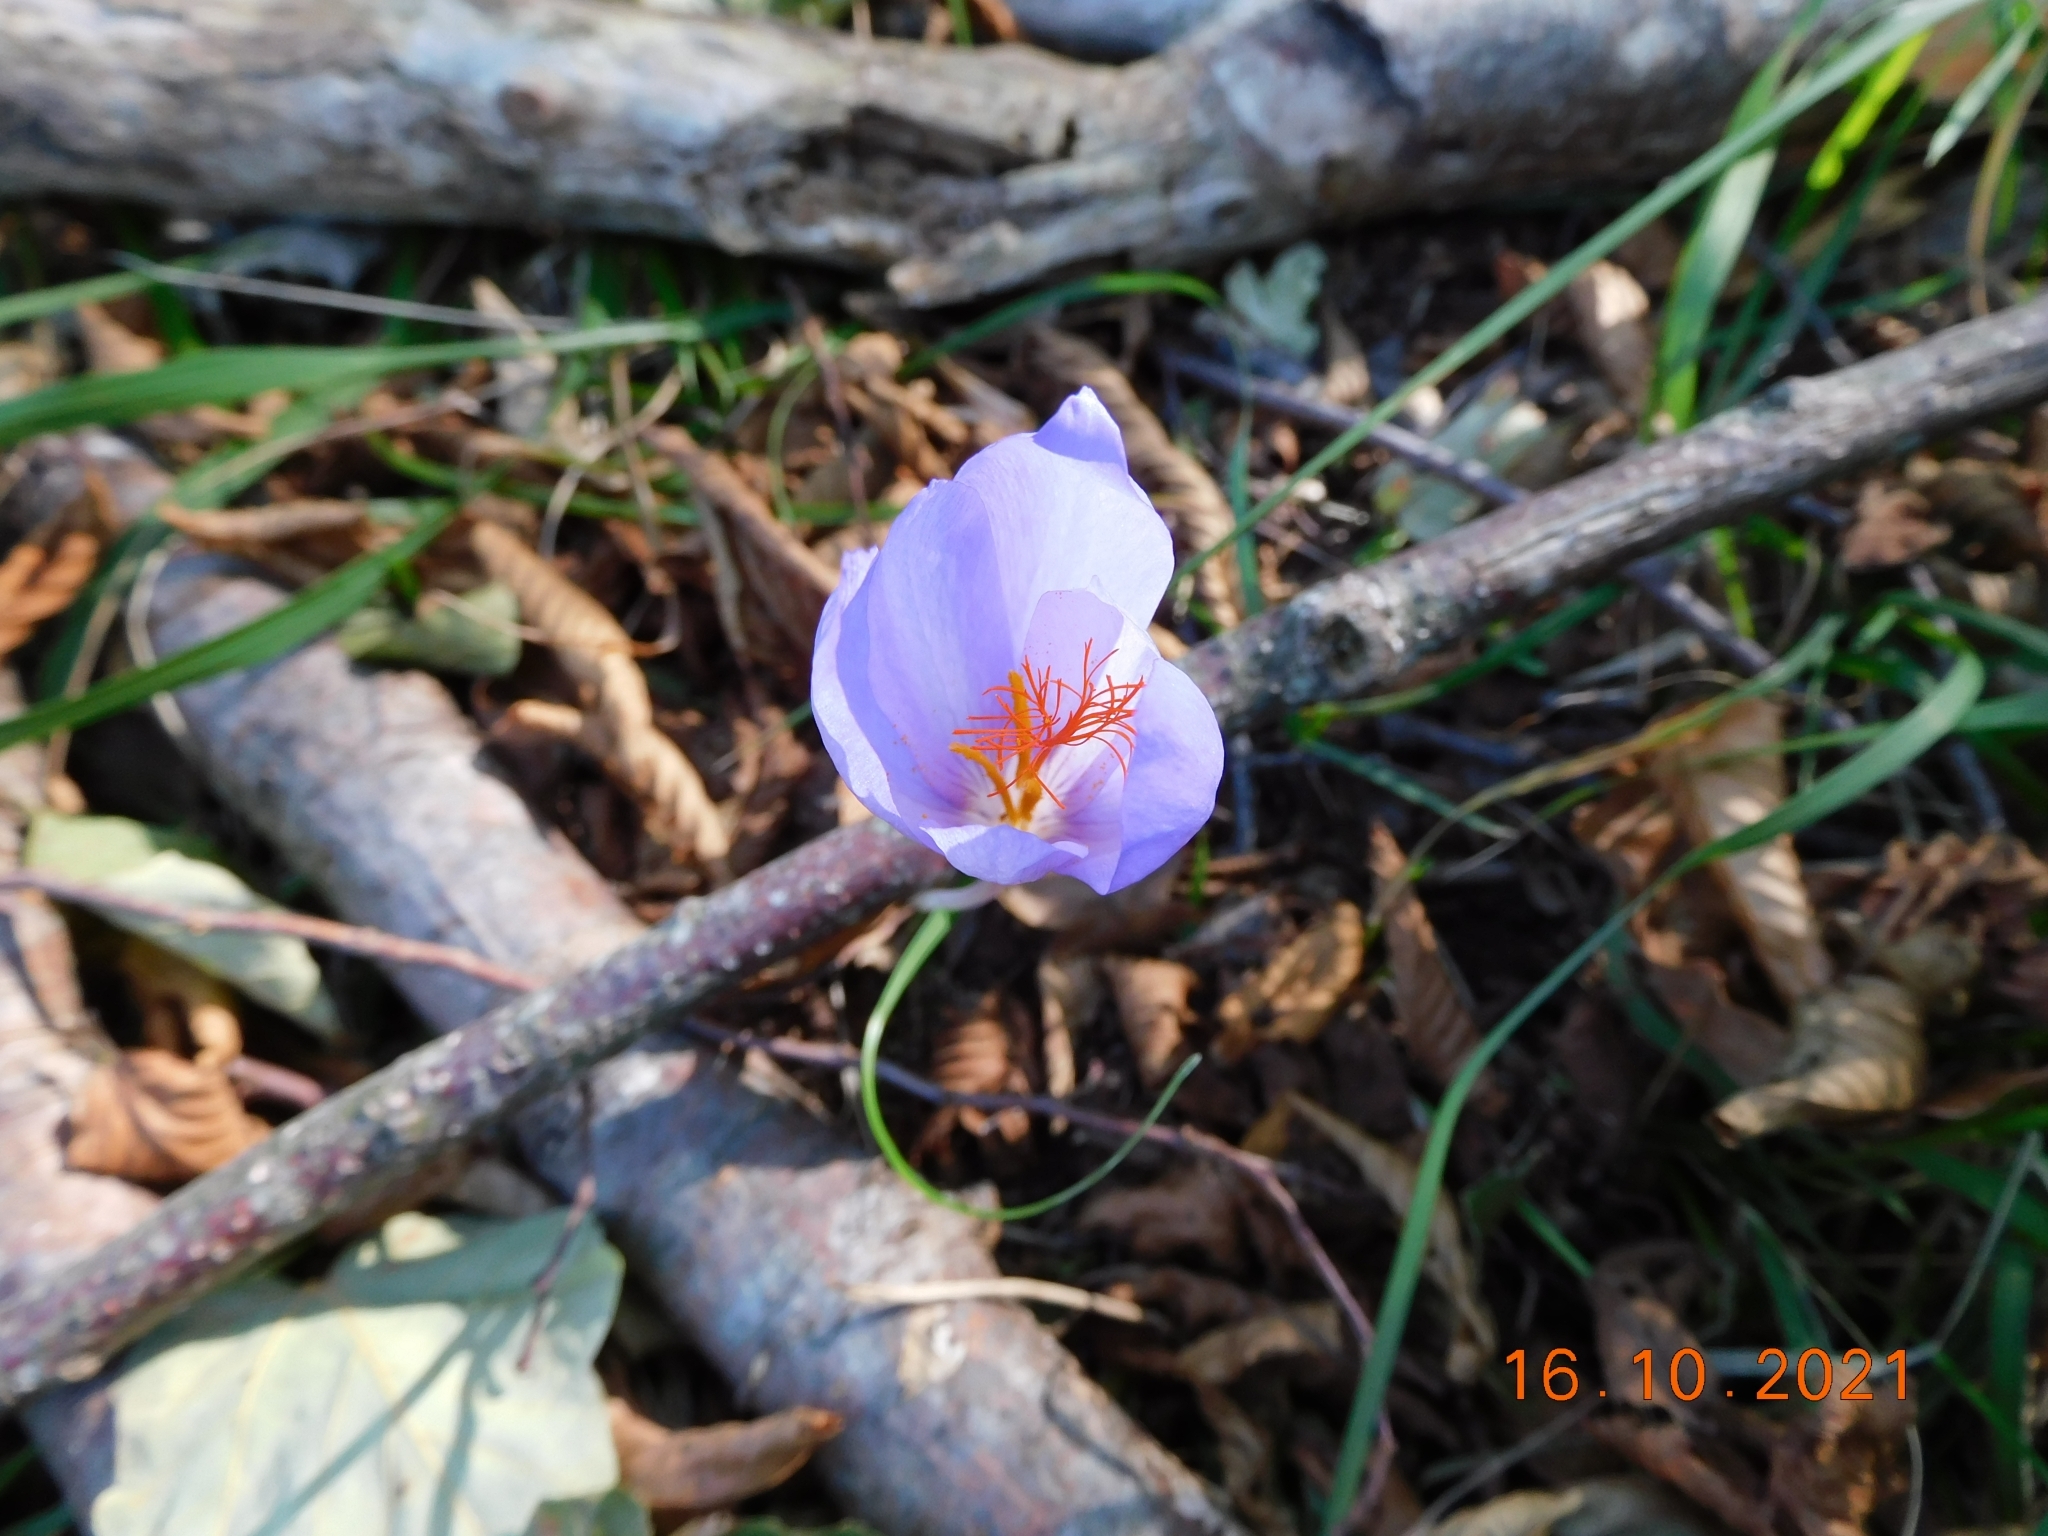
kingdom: Plantae
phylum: Tracheophyta
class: Liliopsida
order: Asparagales
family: Iridaceae
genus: Crocus
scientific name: Crocus ligusticus
